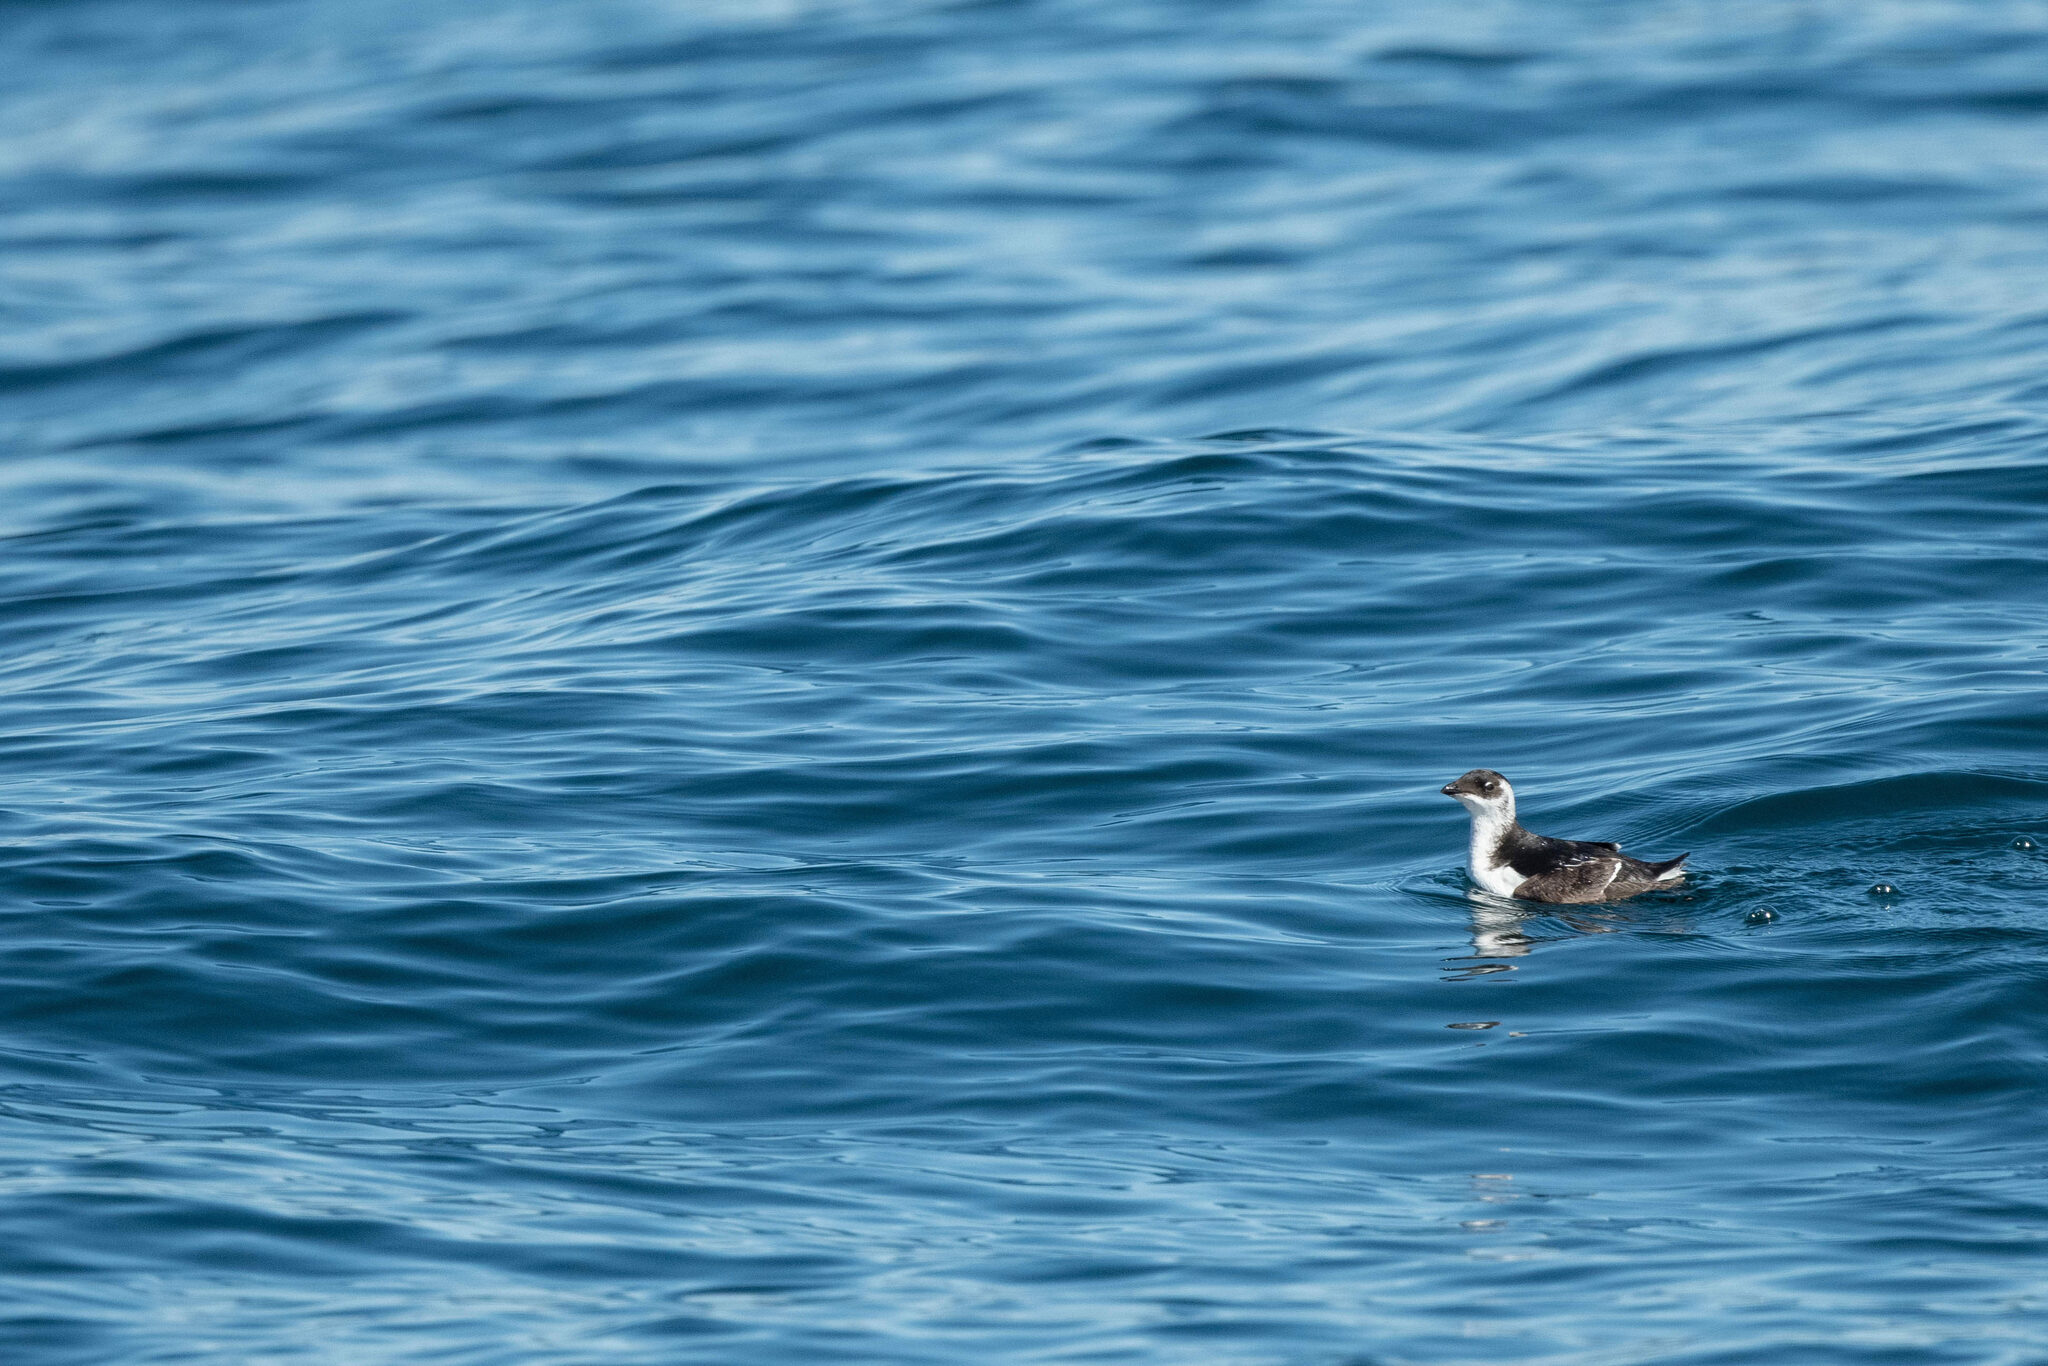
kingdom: Animalia
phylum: Chordata
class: Aves
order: Charadriiformes
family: Alcidae
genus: Alle
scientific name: Alle alle
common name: Little auk
